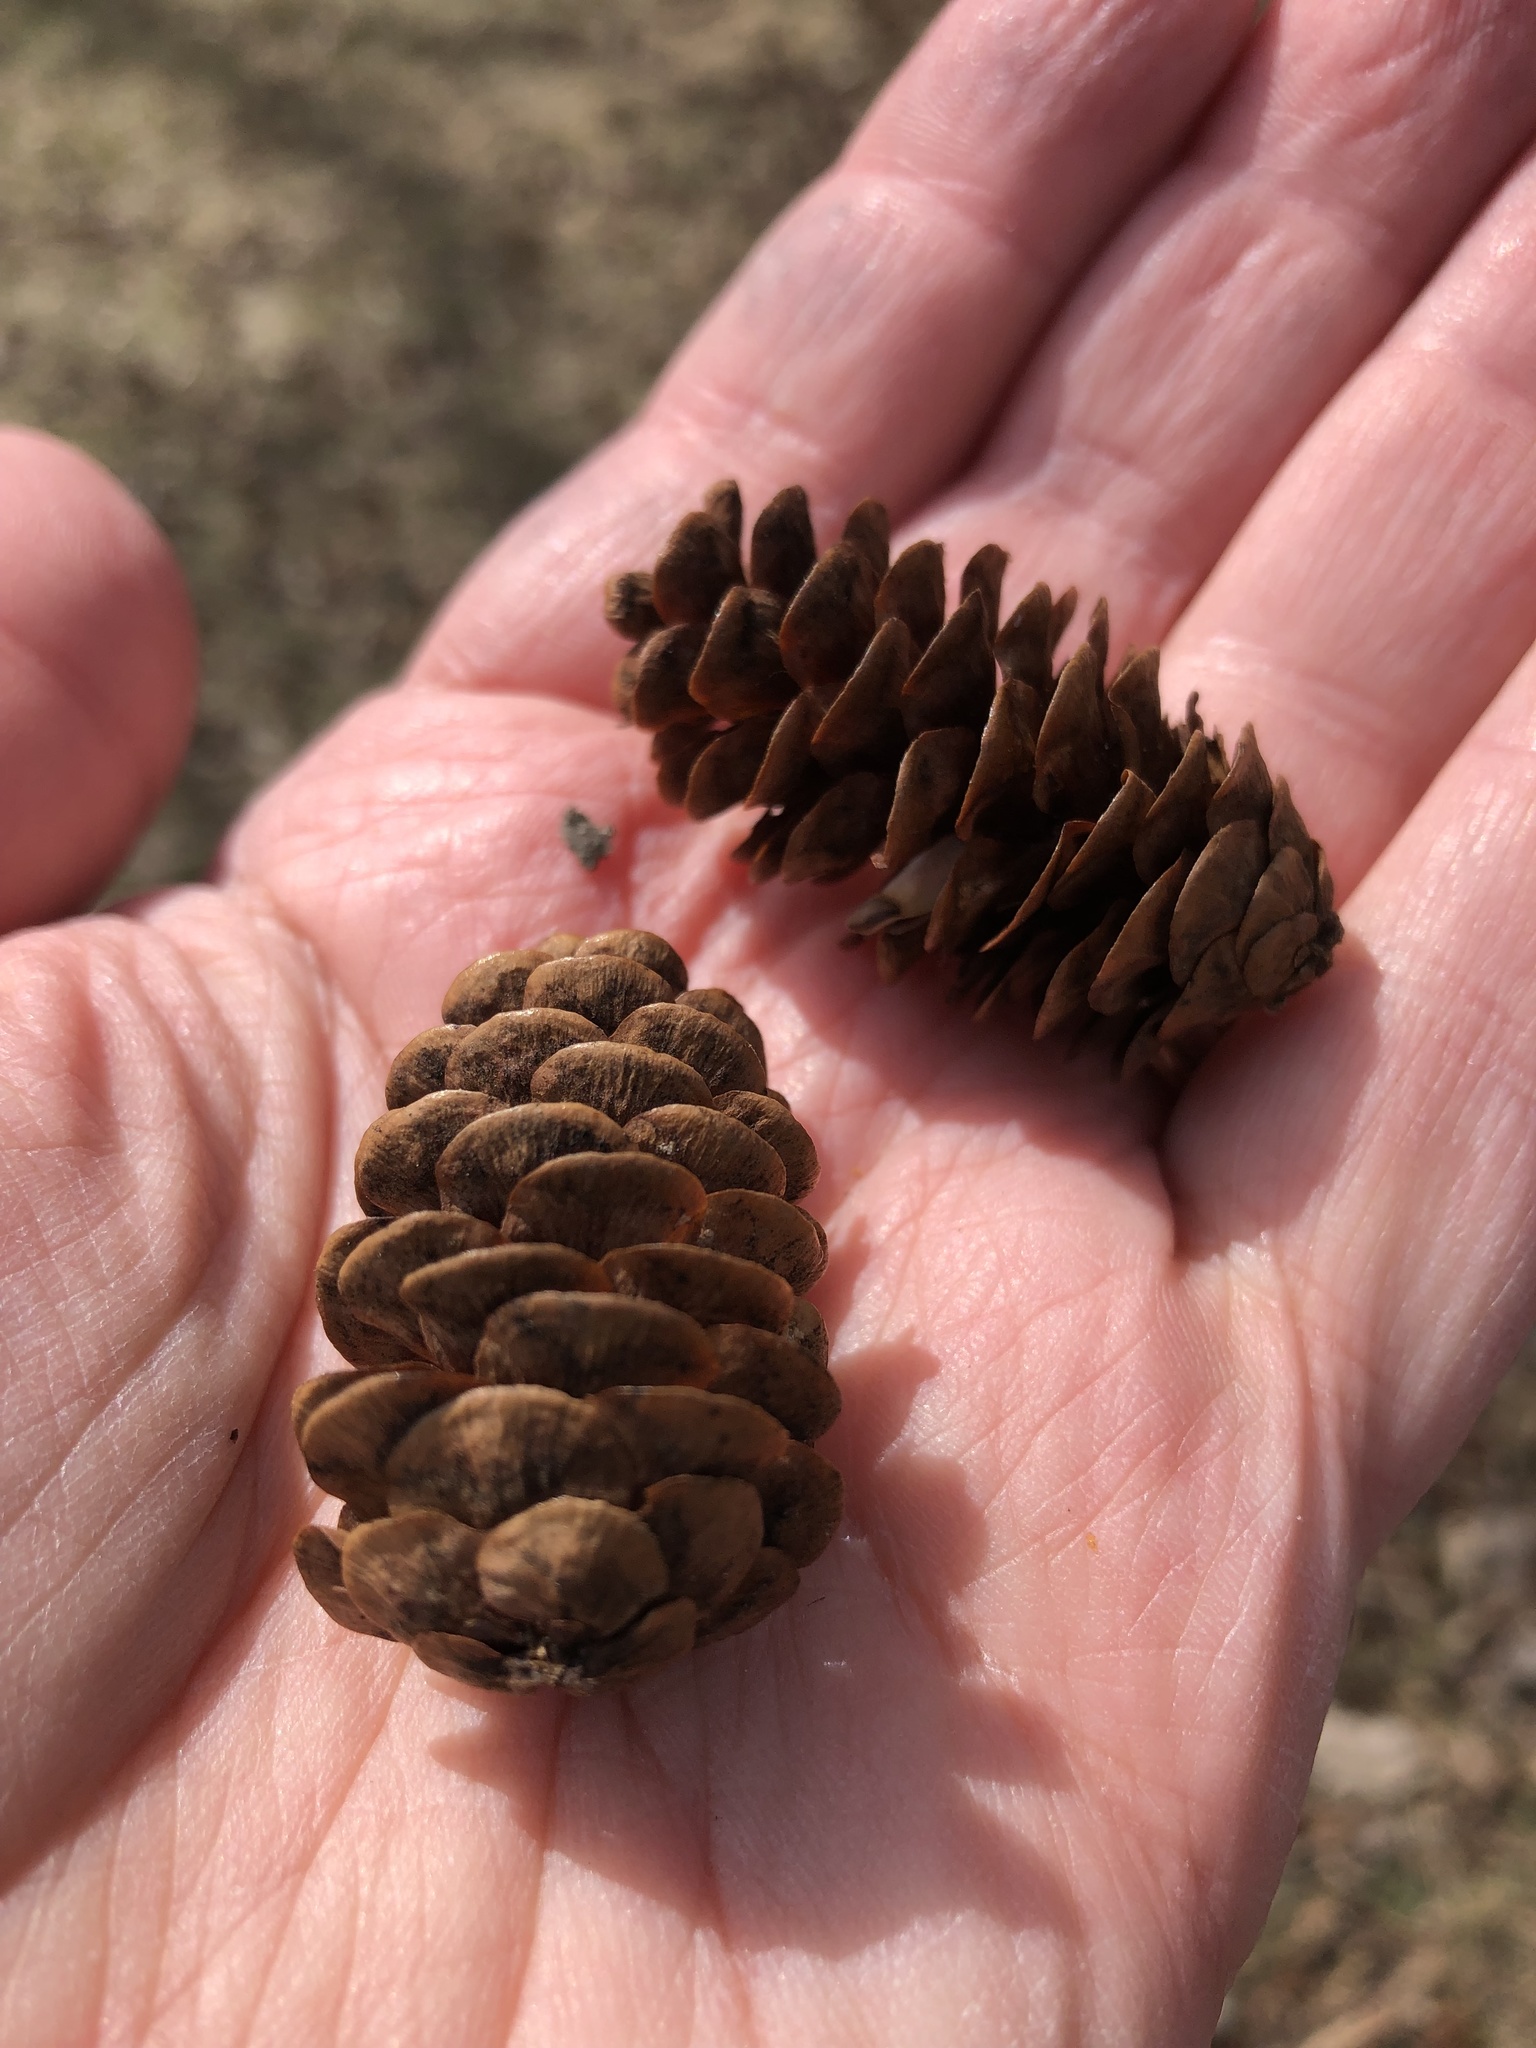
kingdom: Plantae
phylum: Tracheophyta
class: Pinopsida
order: Pinales
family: Pinaceae
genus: Picea
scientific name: Picea glauca
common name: White spruce
